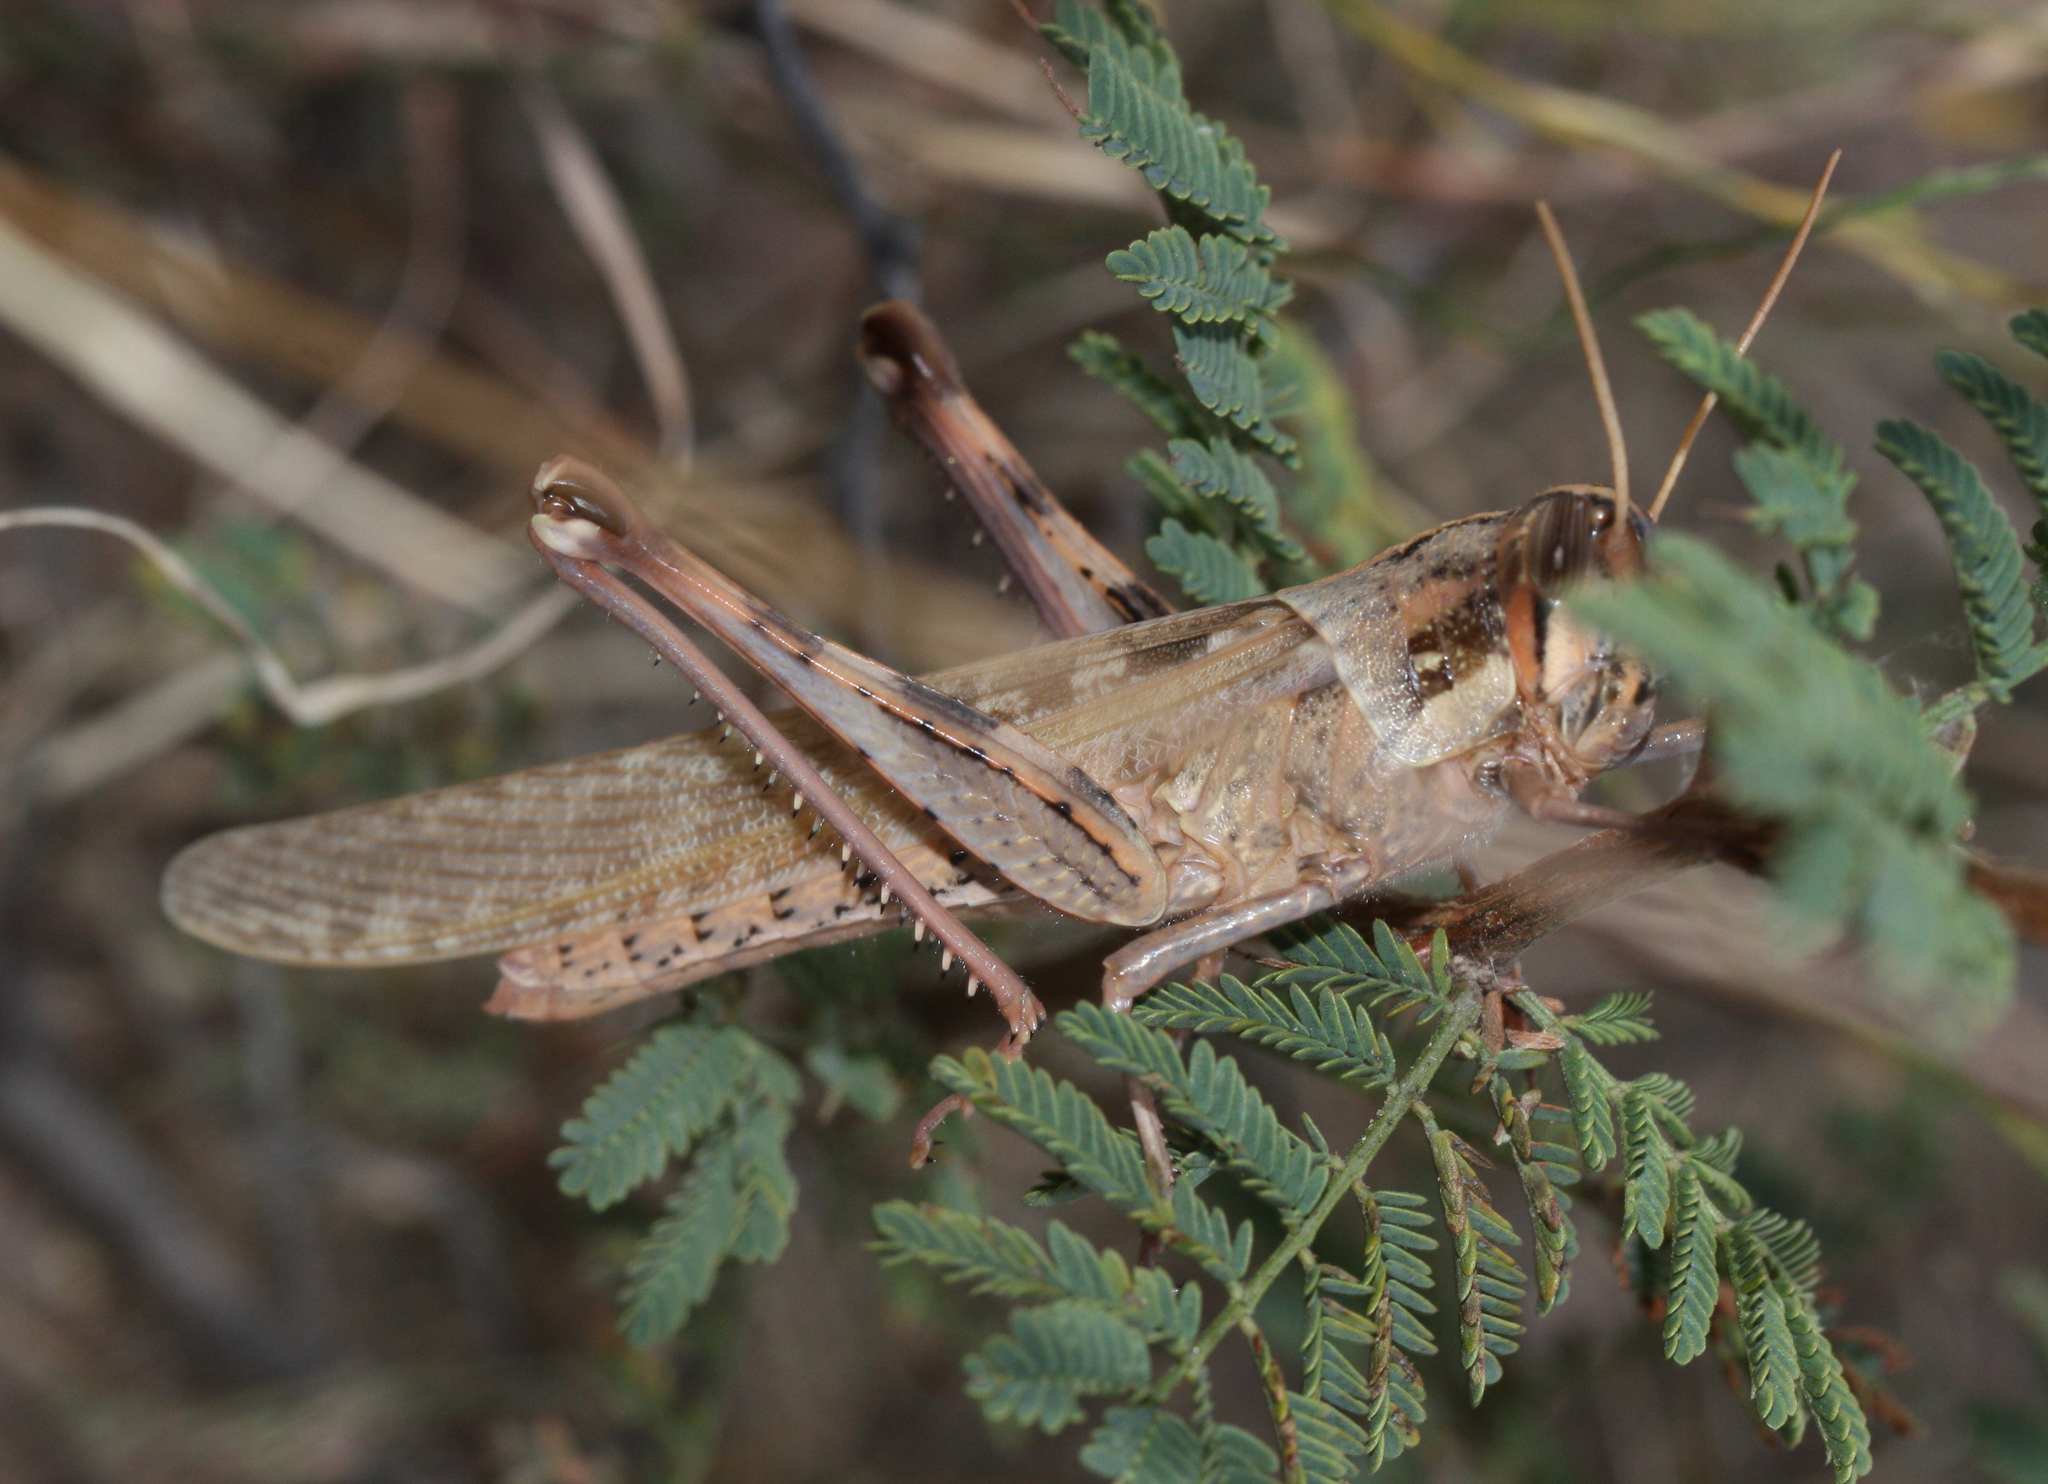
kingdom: Animalia
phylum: Arthropoda
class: Insecta
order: Orthoptera
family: Acrididae
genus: Schistocerca
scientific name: Schistocerca nitens
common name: Vagrant grasshopper
